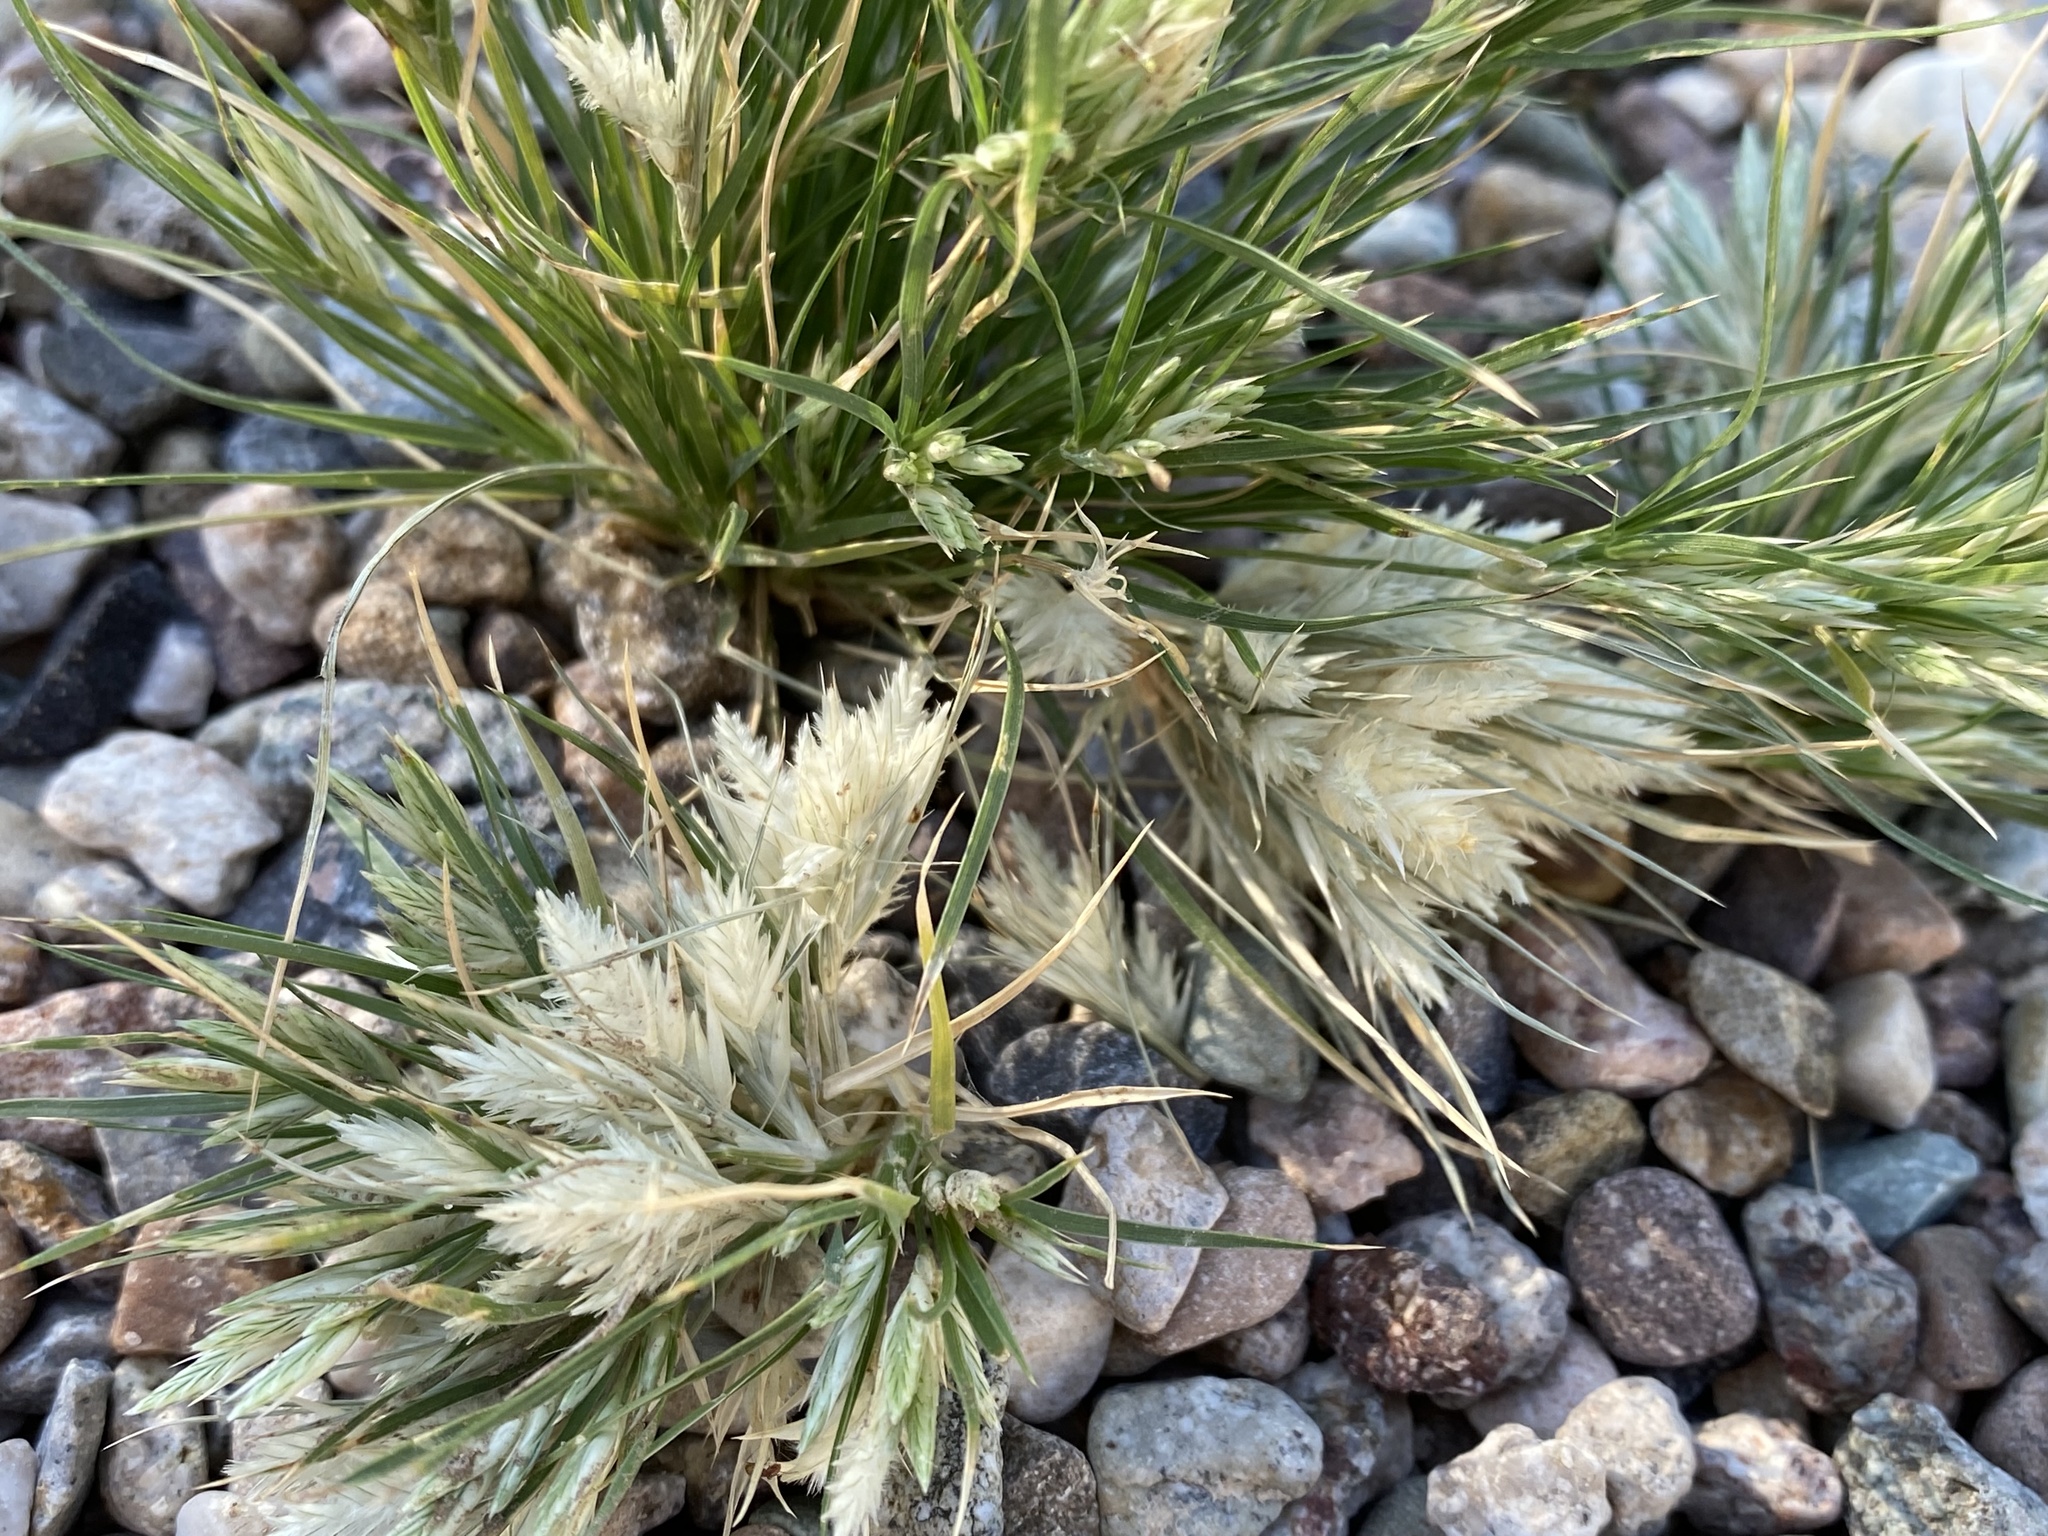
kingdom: Plantae
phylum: Tracheophyta
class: Liliopsida
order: Poales
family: Poaceae
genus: Dasyochloa
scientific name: Dasyochloa pulchella
